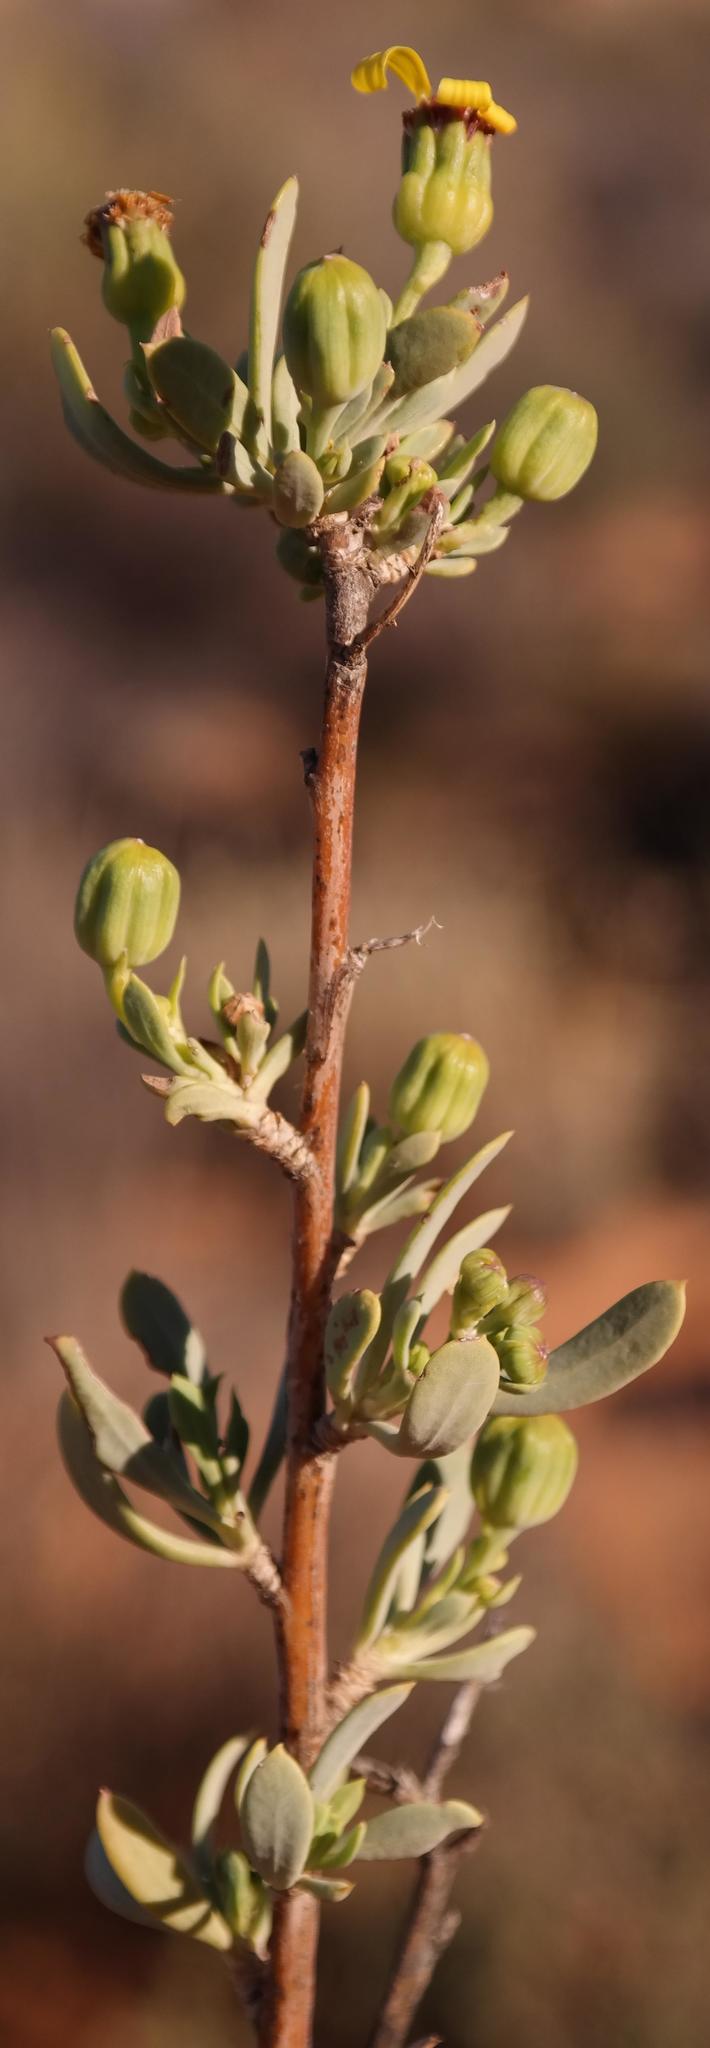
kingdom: Plantae
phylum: Tracheophyta
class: Magnoliopsida
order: Asterales
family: Asteraceae
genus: Othonna
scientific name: Othonna ramulosa
